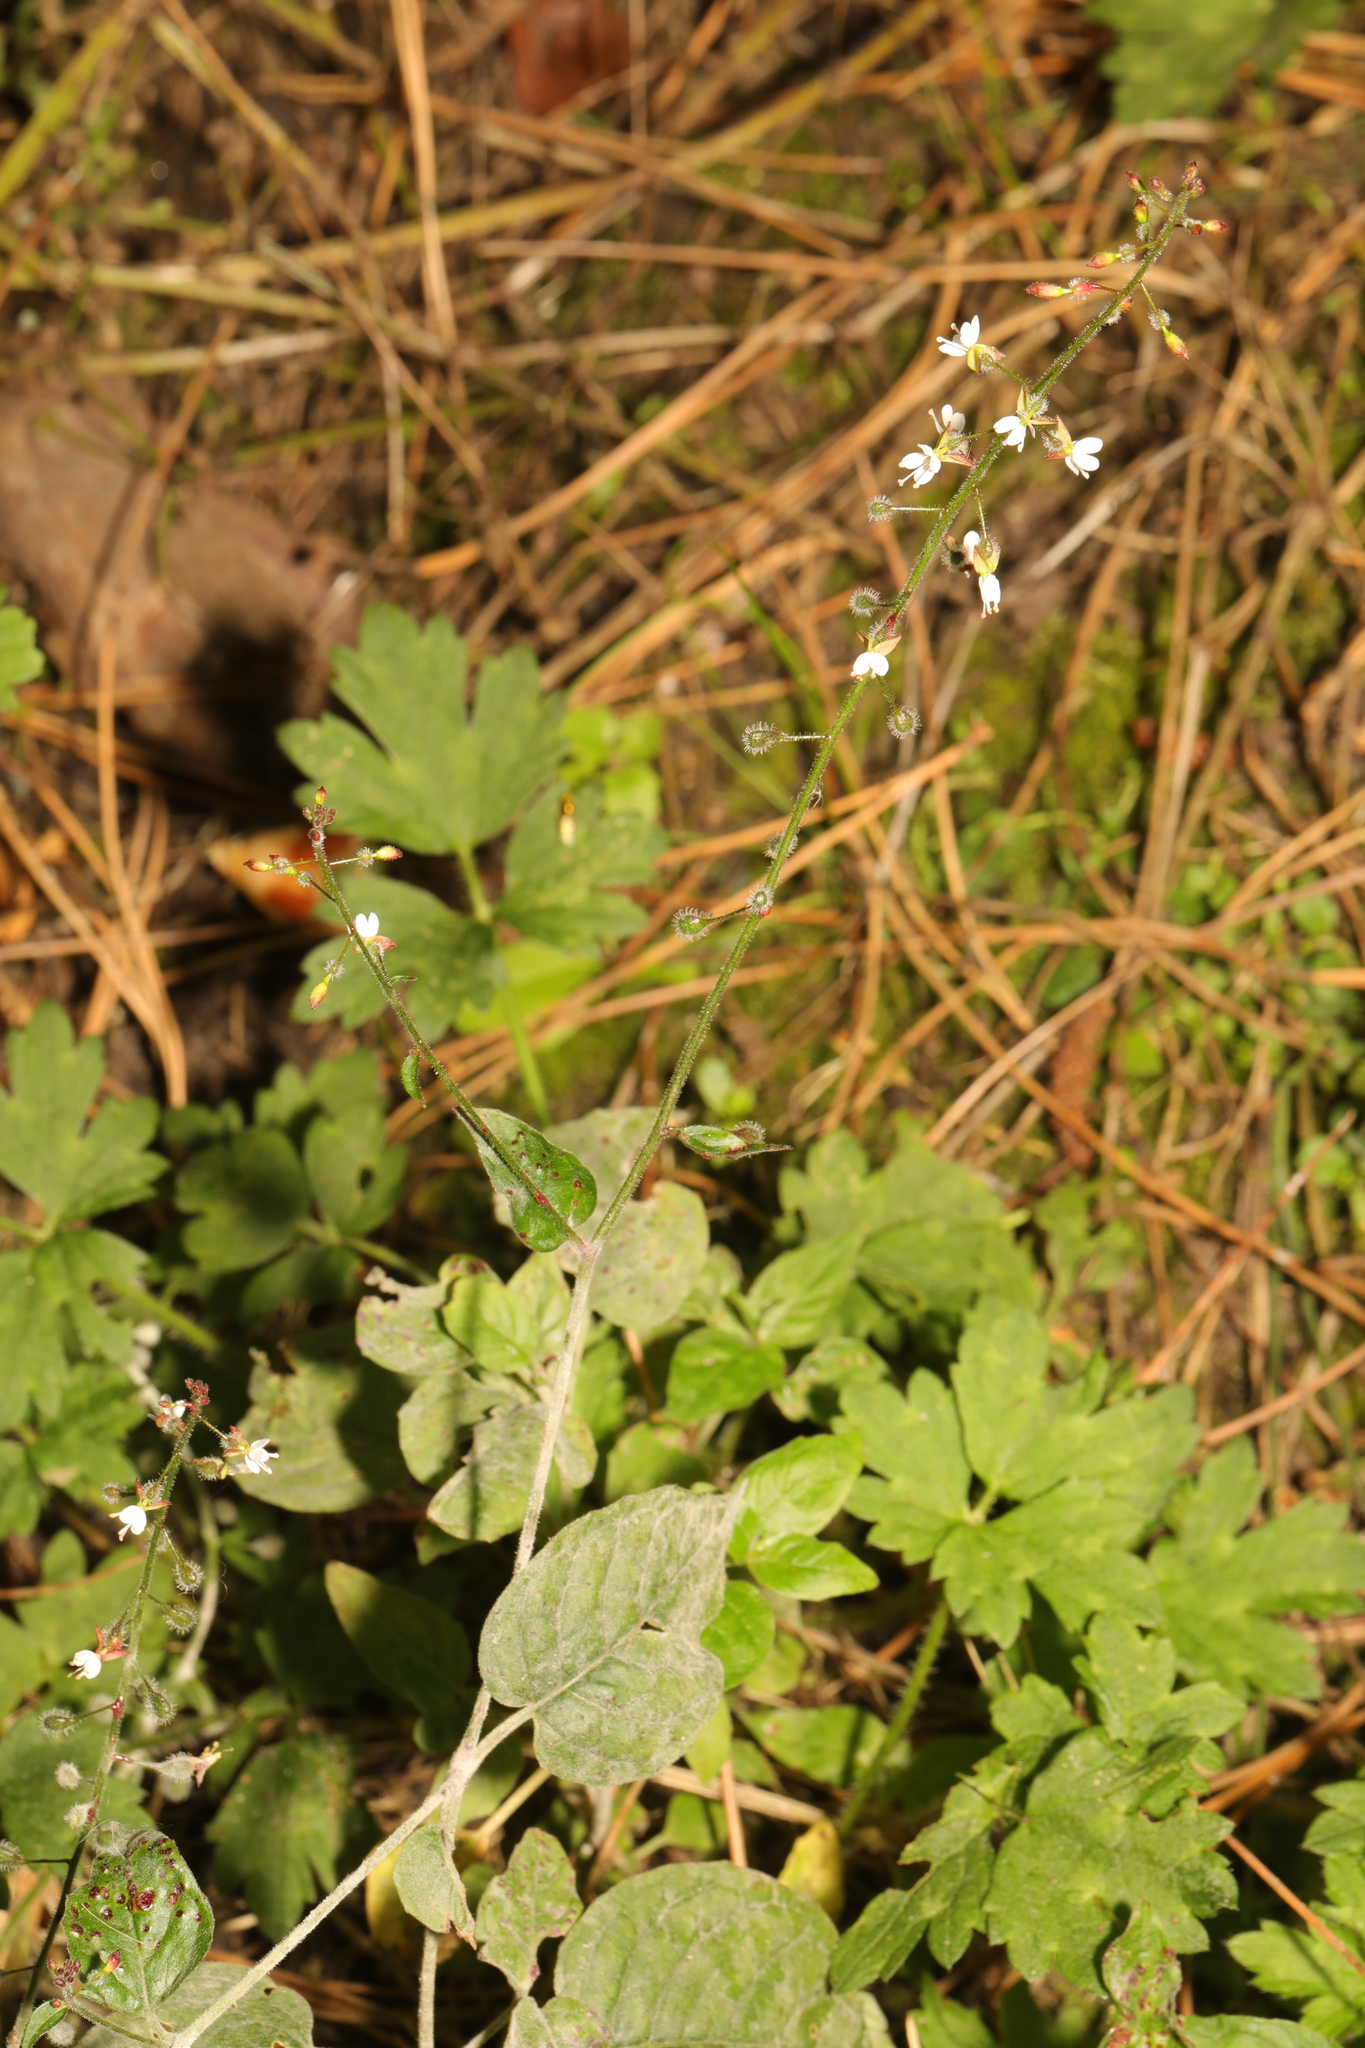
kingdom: Plantae
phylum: Tracheophyta
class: Magnoliopsida
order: Myrtales
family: Onagraceae
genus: Circaea
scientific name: Circaea lutetiana
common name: Enchanter's-nightshade
